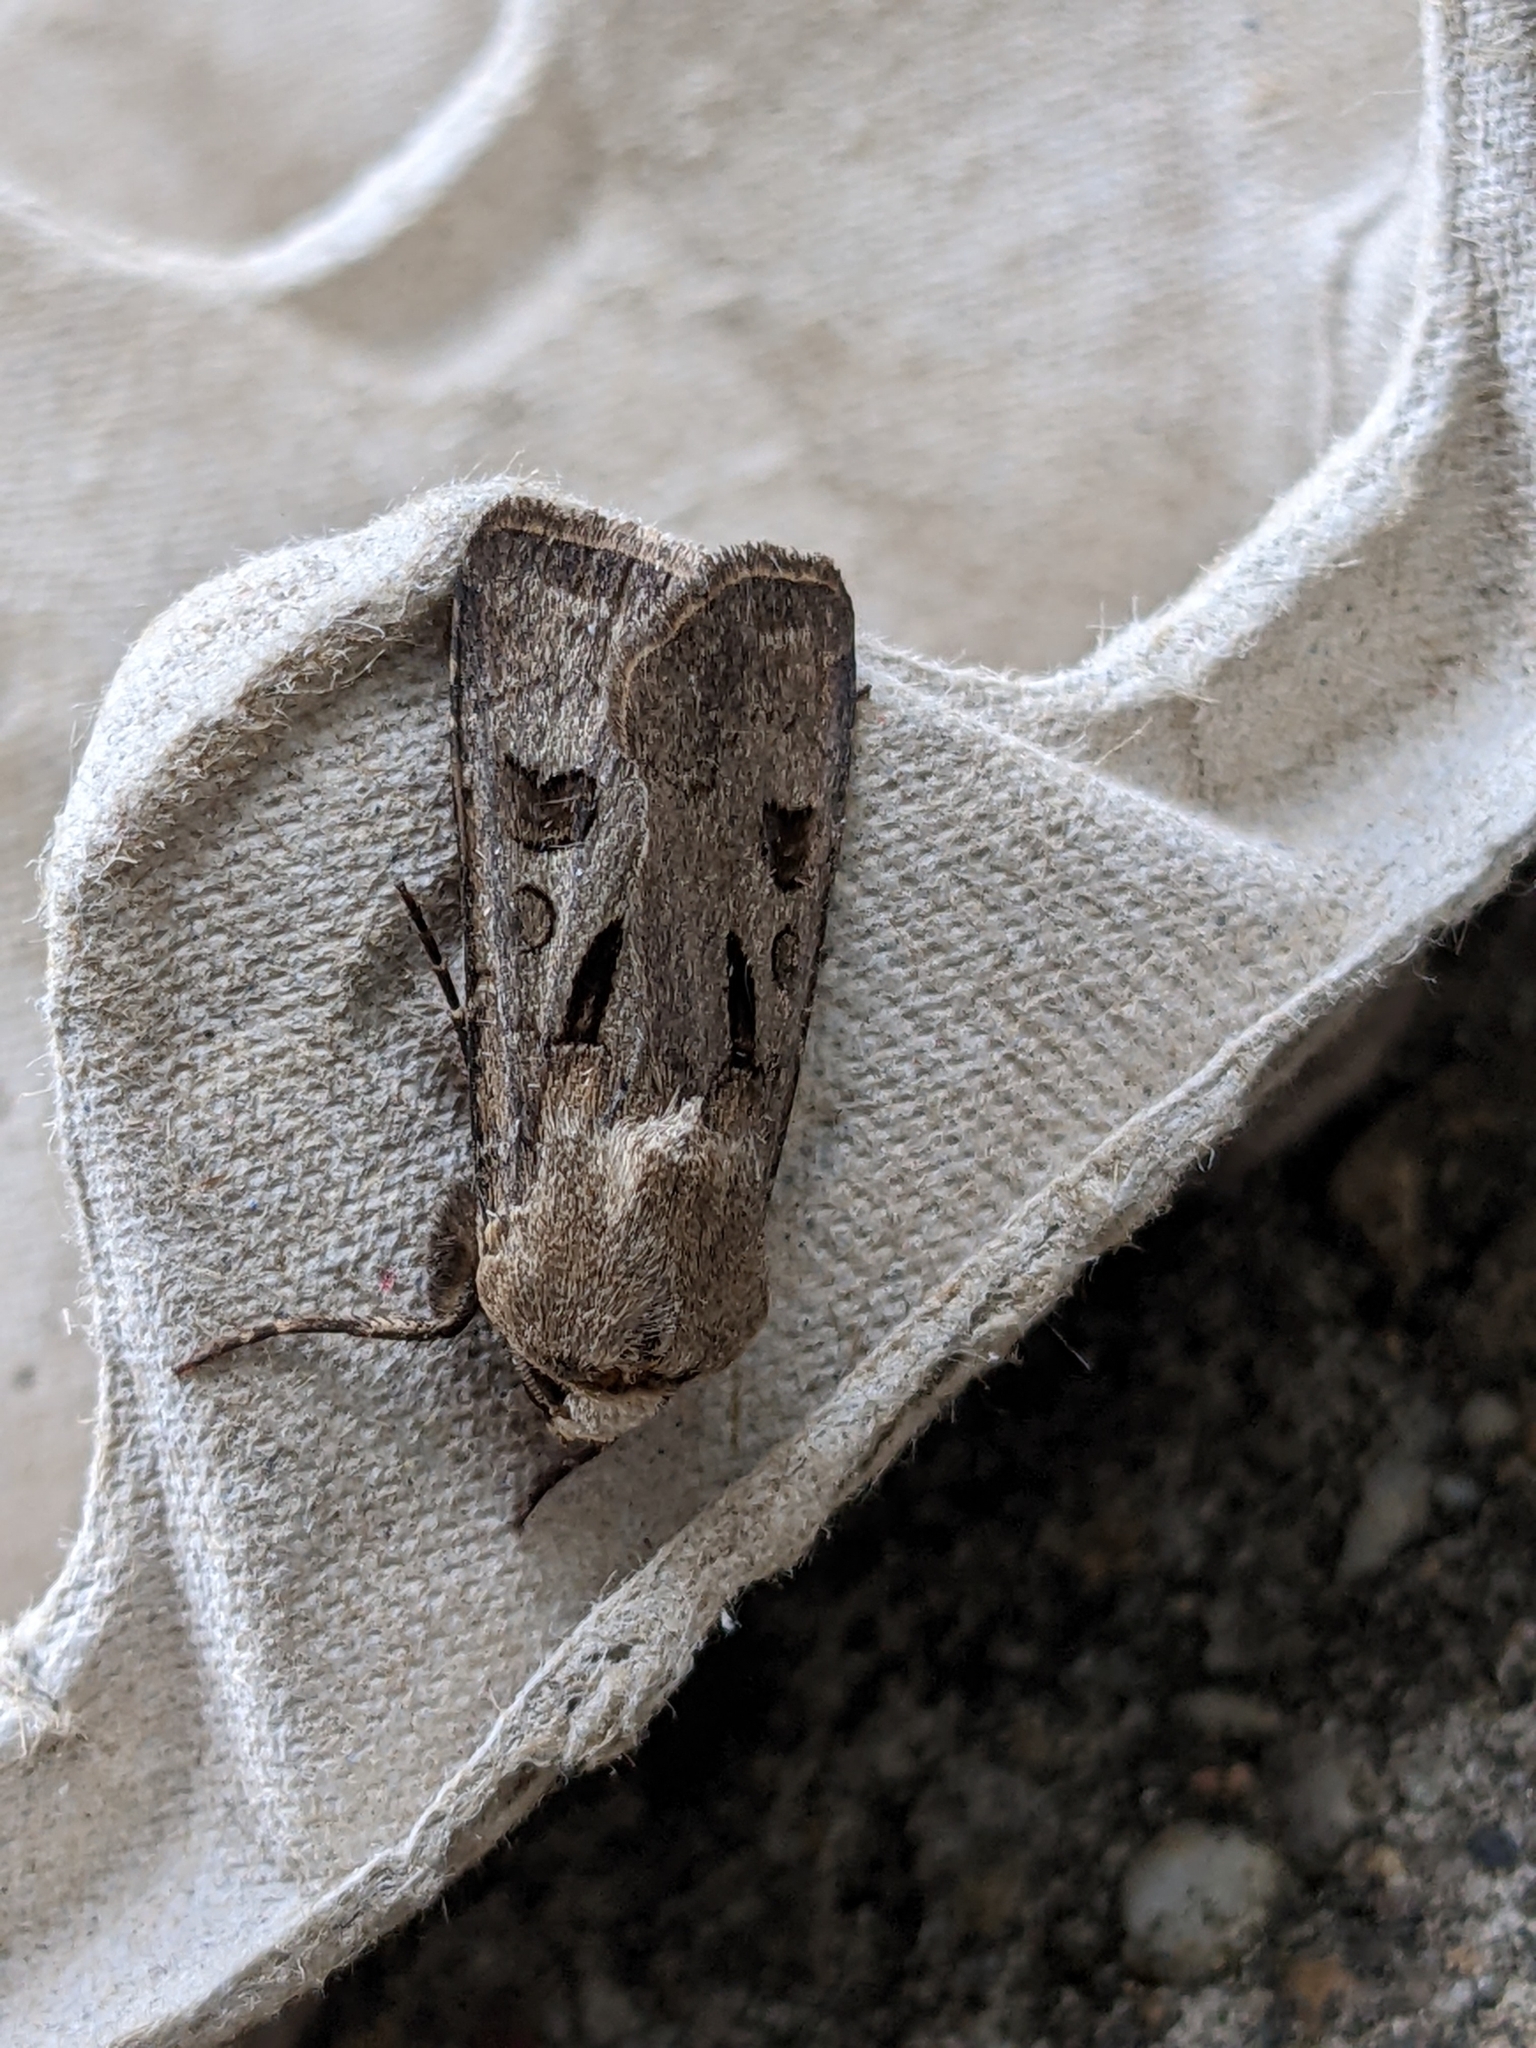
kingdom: Animalia
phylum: Arthropoda
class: Insecta
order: Lepidoptera
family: Noctuidae
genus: Agrotis
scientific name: Agrotis exclamationis
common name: Heart and dart
